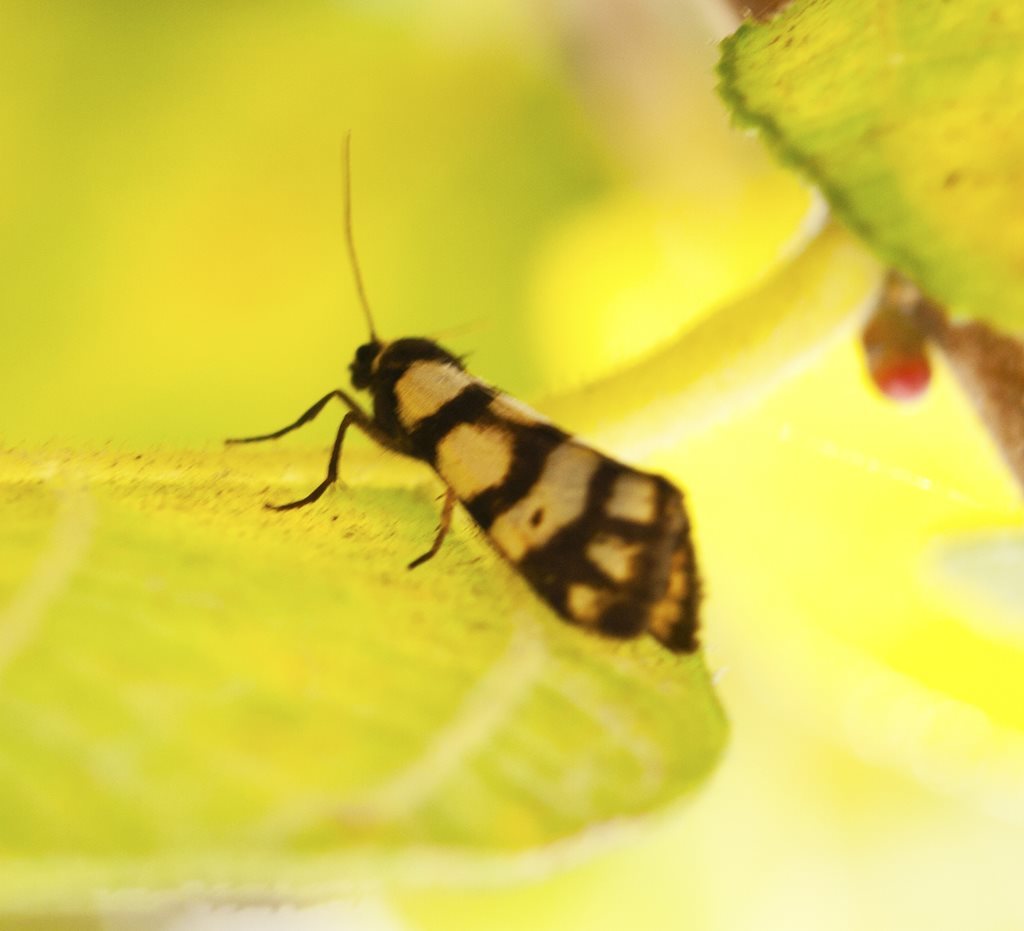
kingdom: Animalia
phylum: Arthropoda
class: Insecta
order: Lepidoptera
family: Erebidae
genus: Asura
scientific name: Asura terminalis
